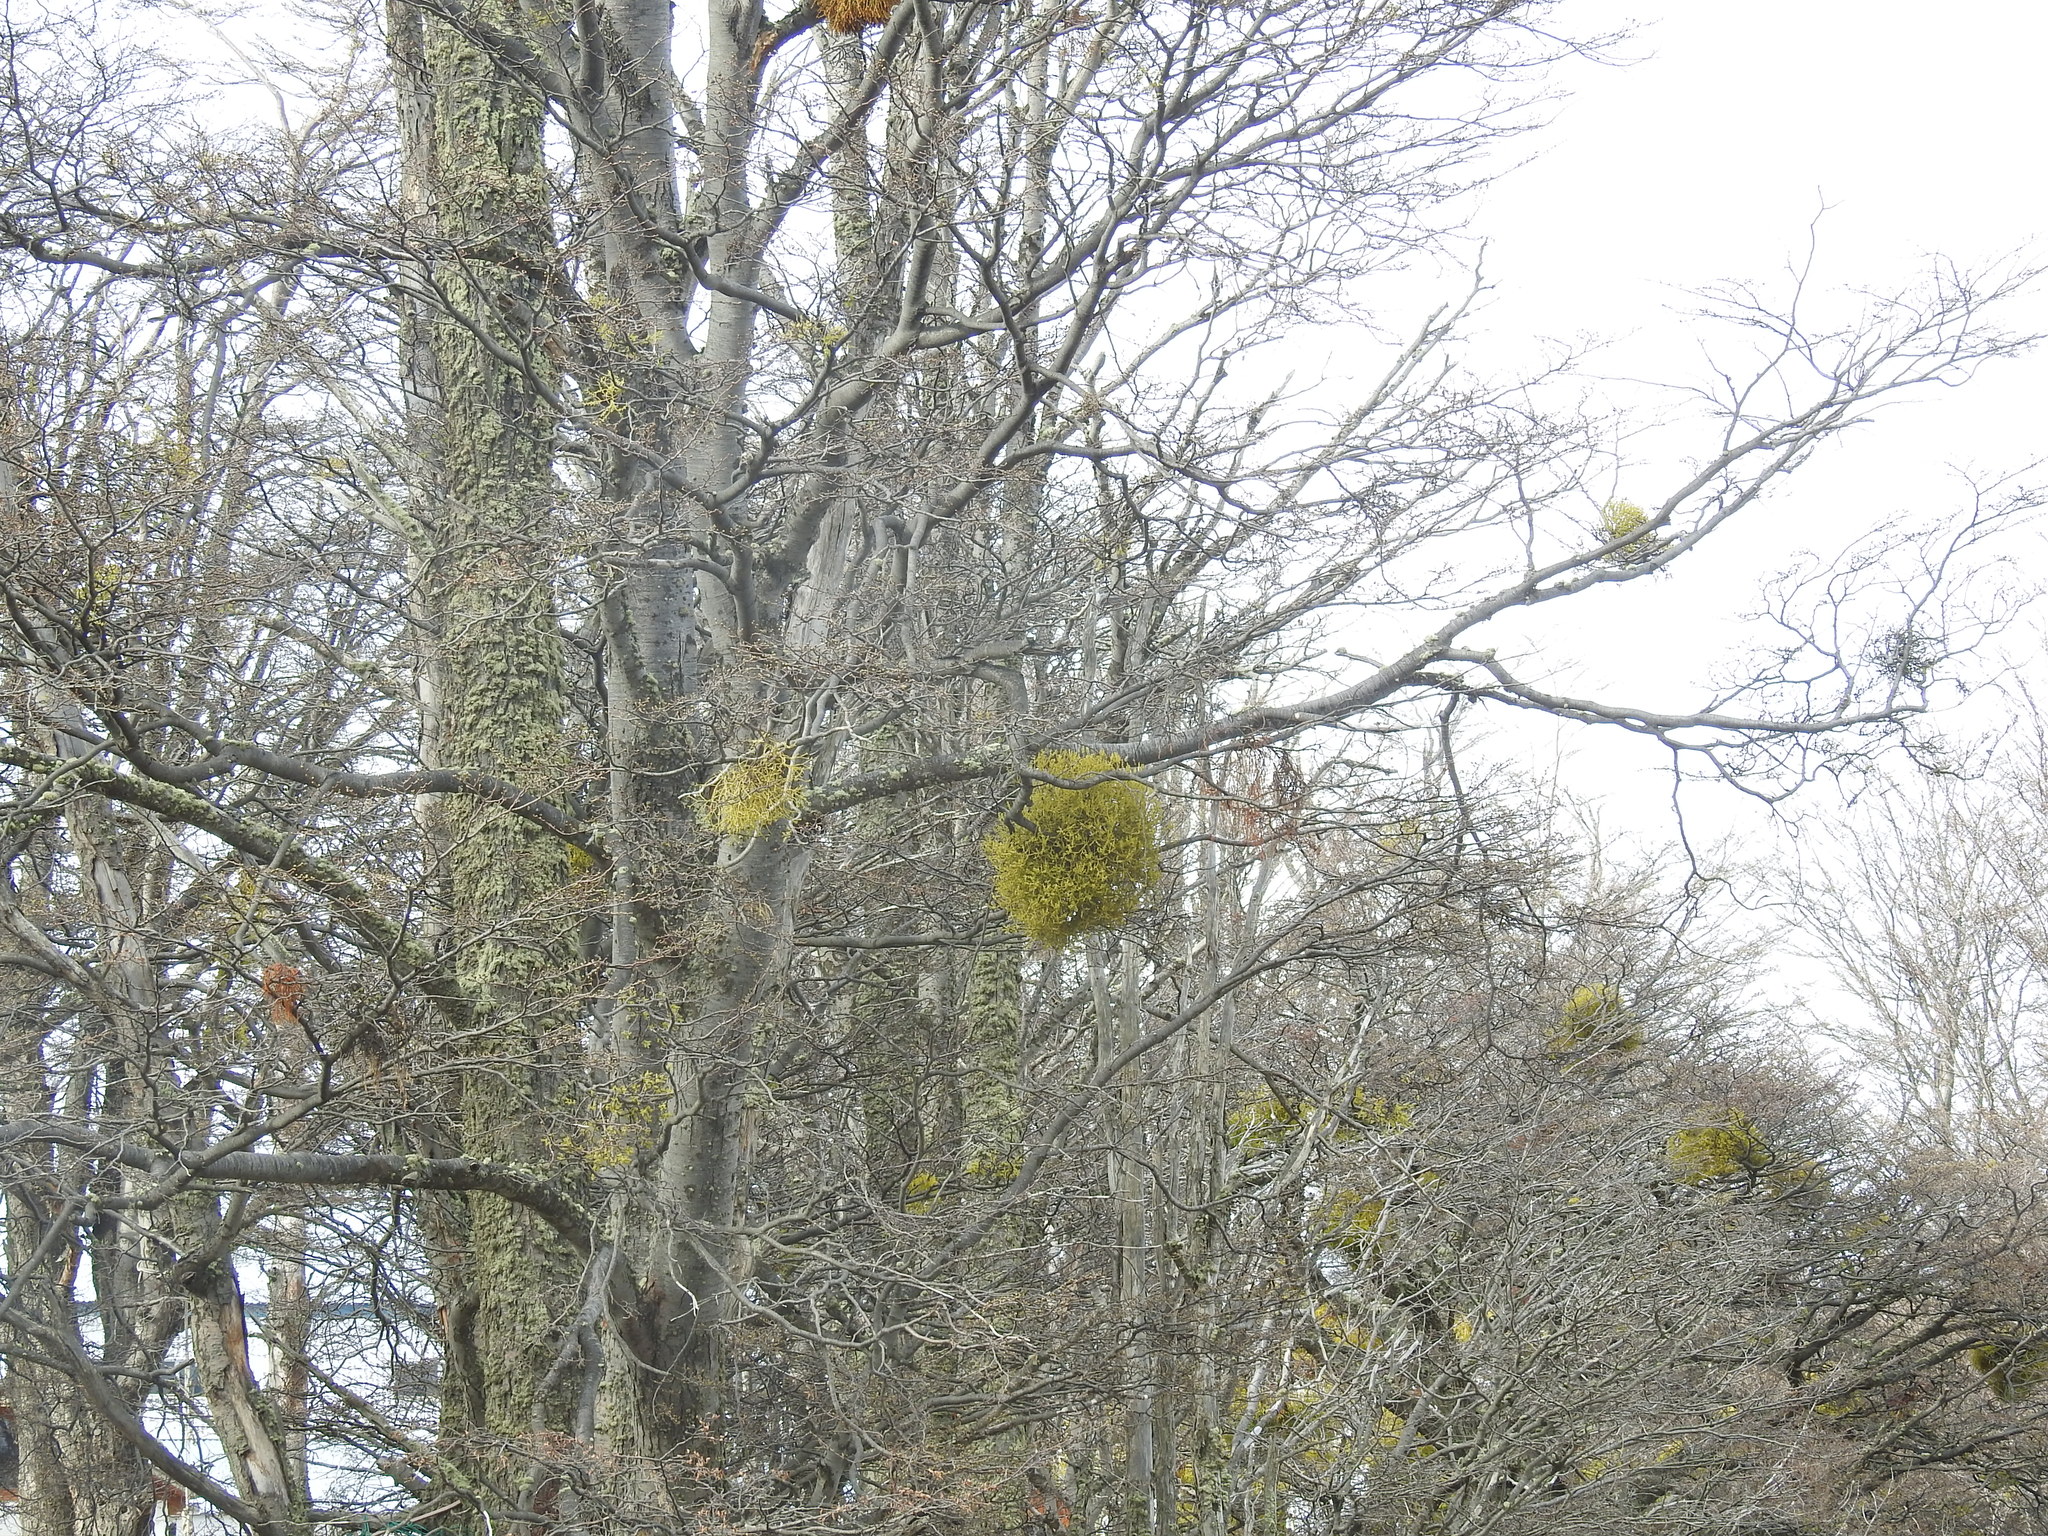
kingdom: Plantae
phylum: Tracheophyta
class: Magnoliopsida
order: Santalales
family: Misodendraceae
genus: Misodendrum
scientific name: Misodendrum punctulatum
